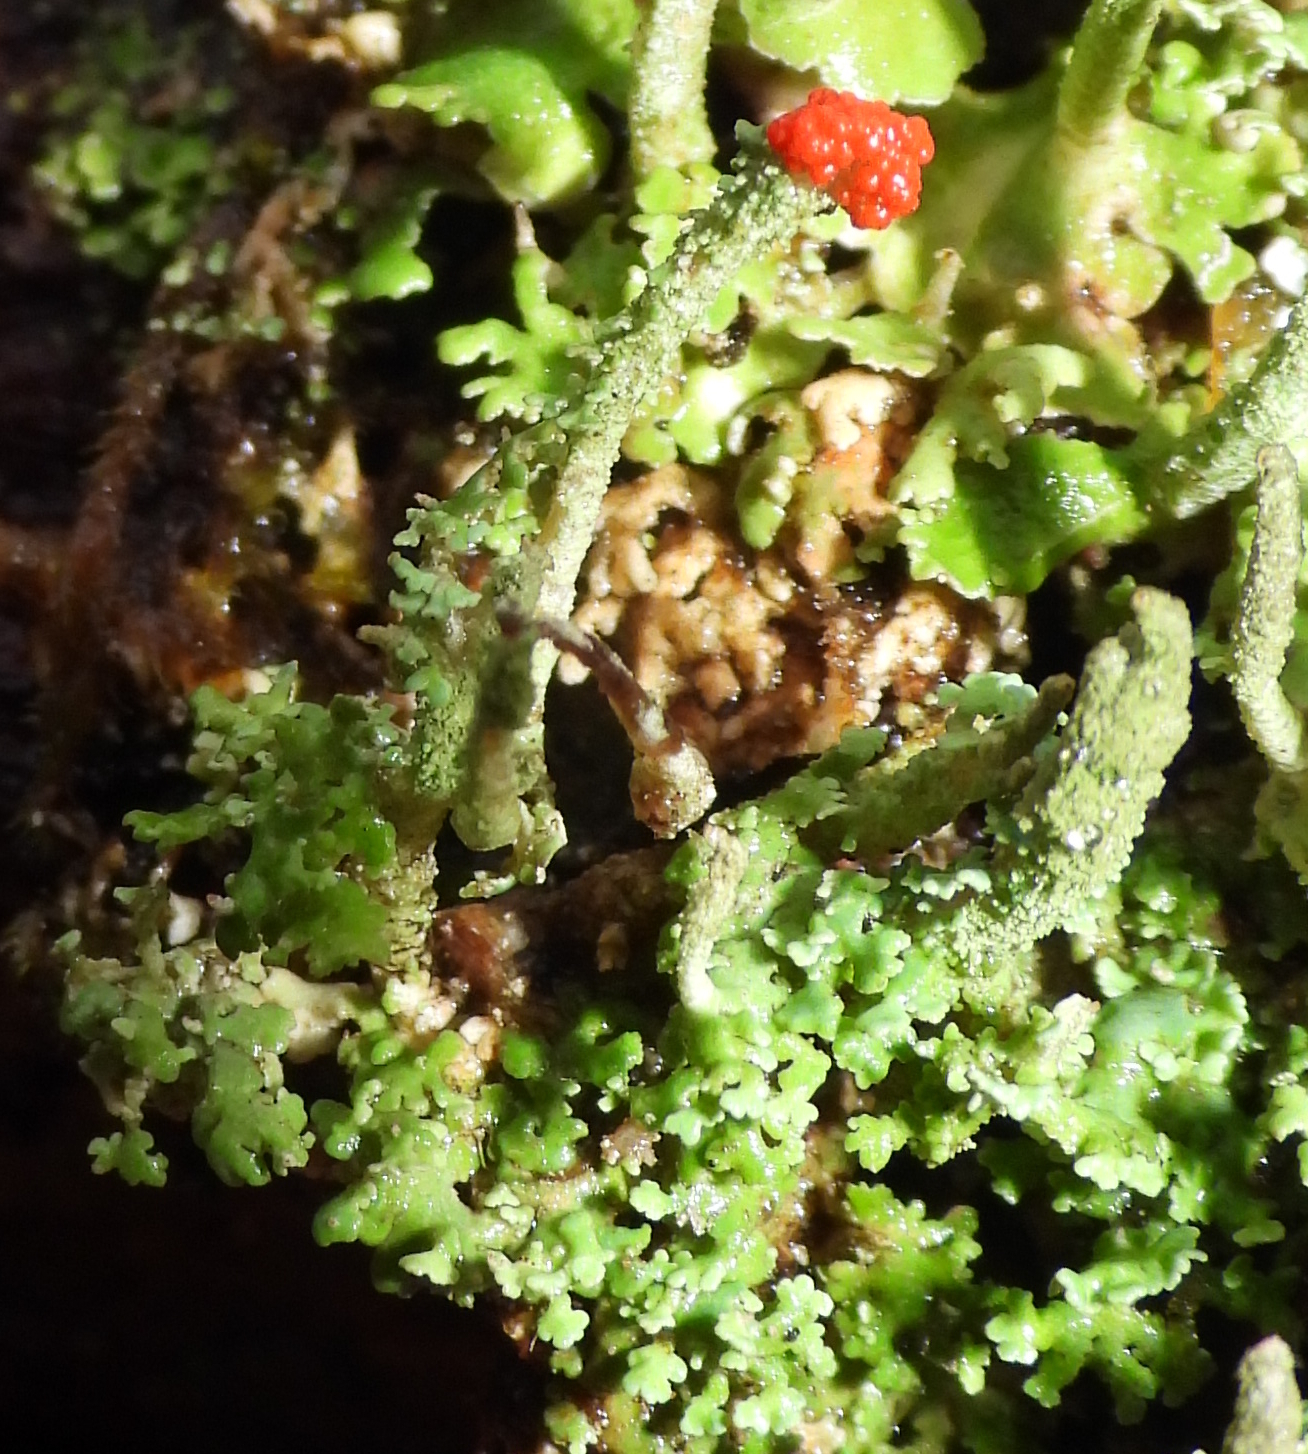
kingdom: Fungi
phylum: Ascomycota
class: Lecanoromycetes
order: Lecanorales
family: Cladoniaceae
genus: Cladonia
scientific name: Cladonia cristatella
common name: British soldier lichen
